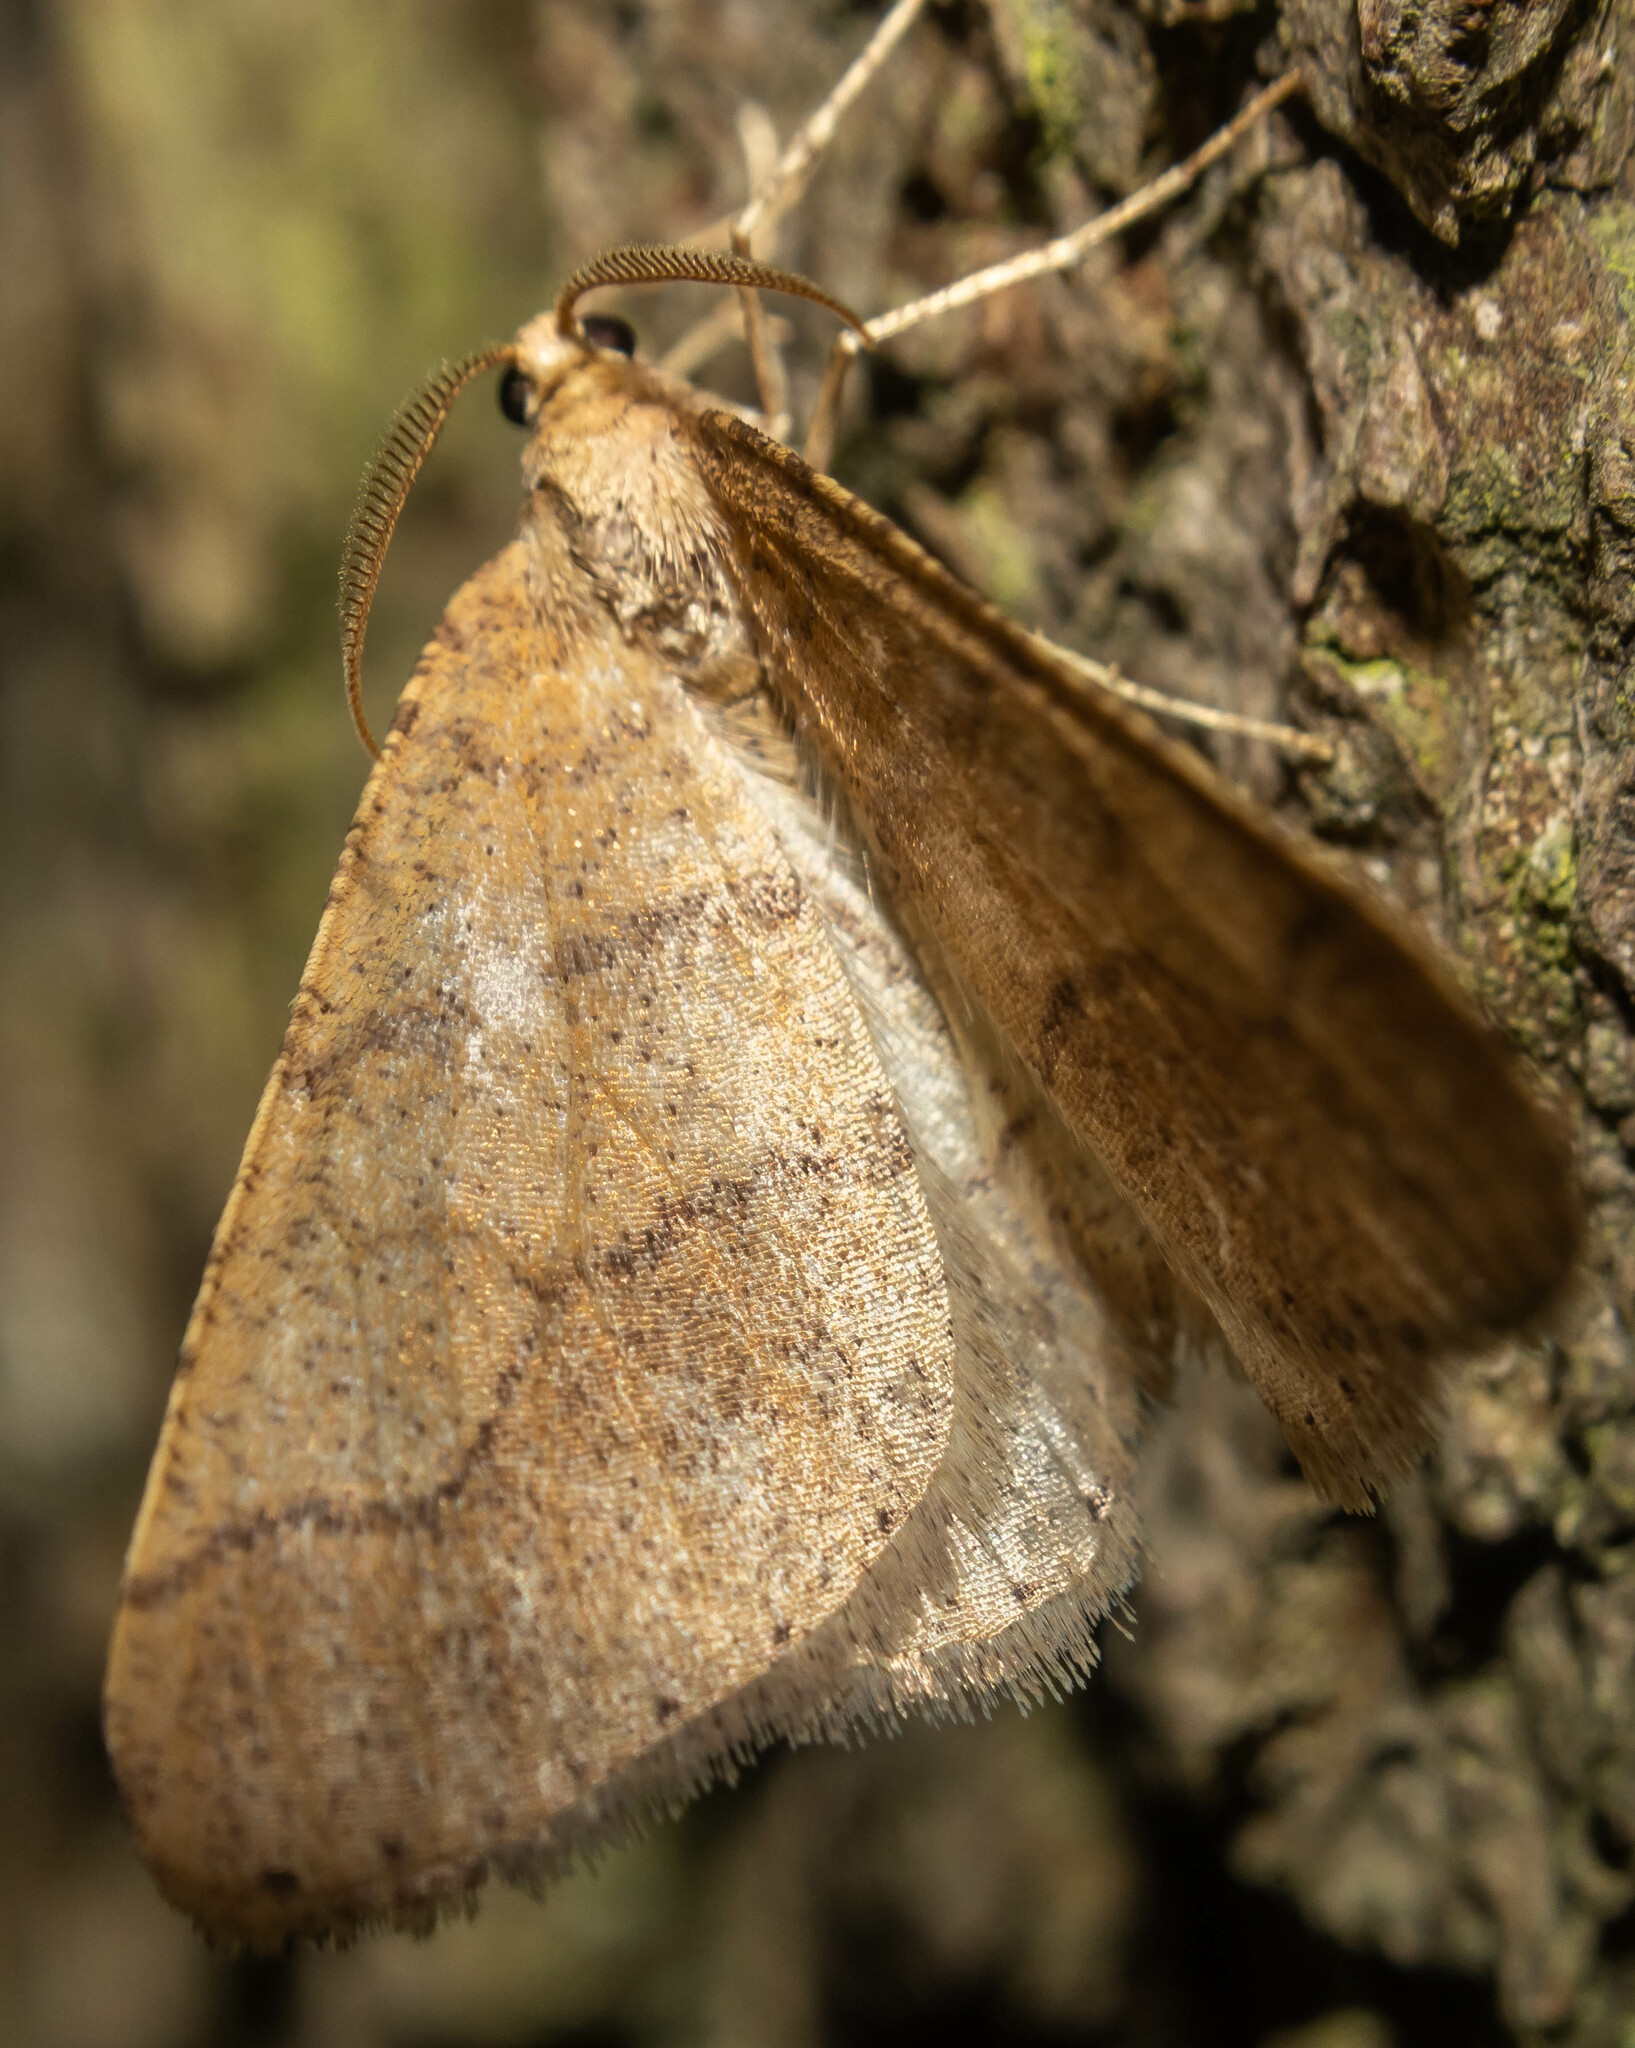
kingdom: Animalia
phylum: Arthropoda
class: Insecta
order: Lepidoptera
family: Geometridae
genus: Agriopis
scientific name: Agriopis marginaria
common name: Dotted border
